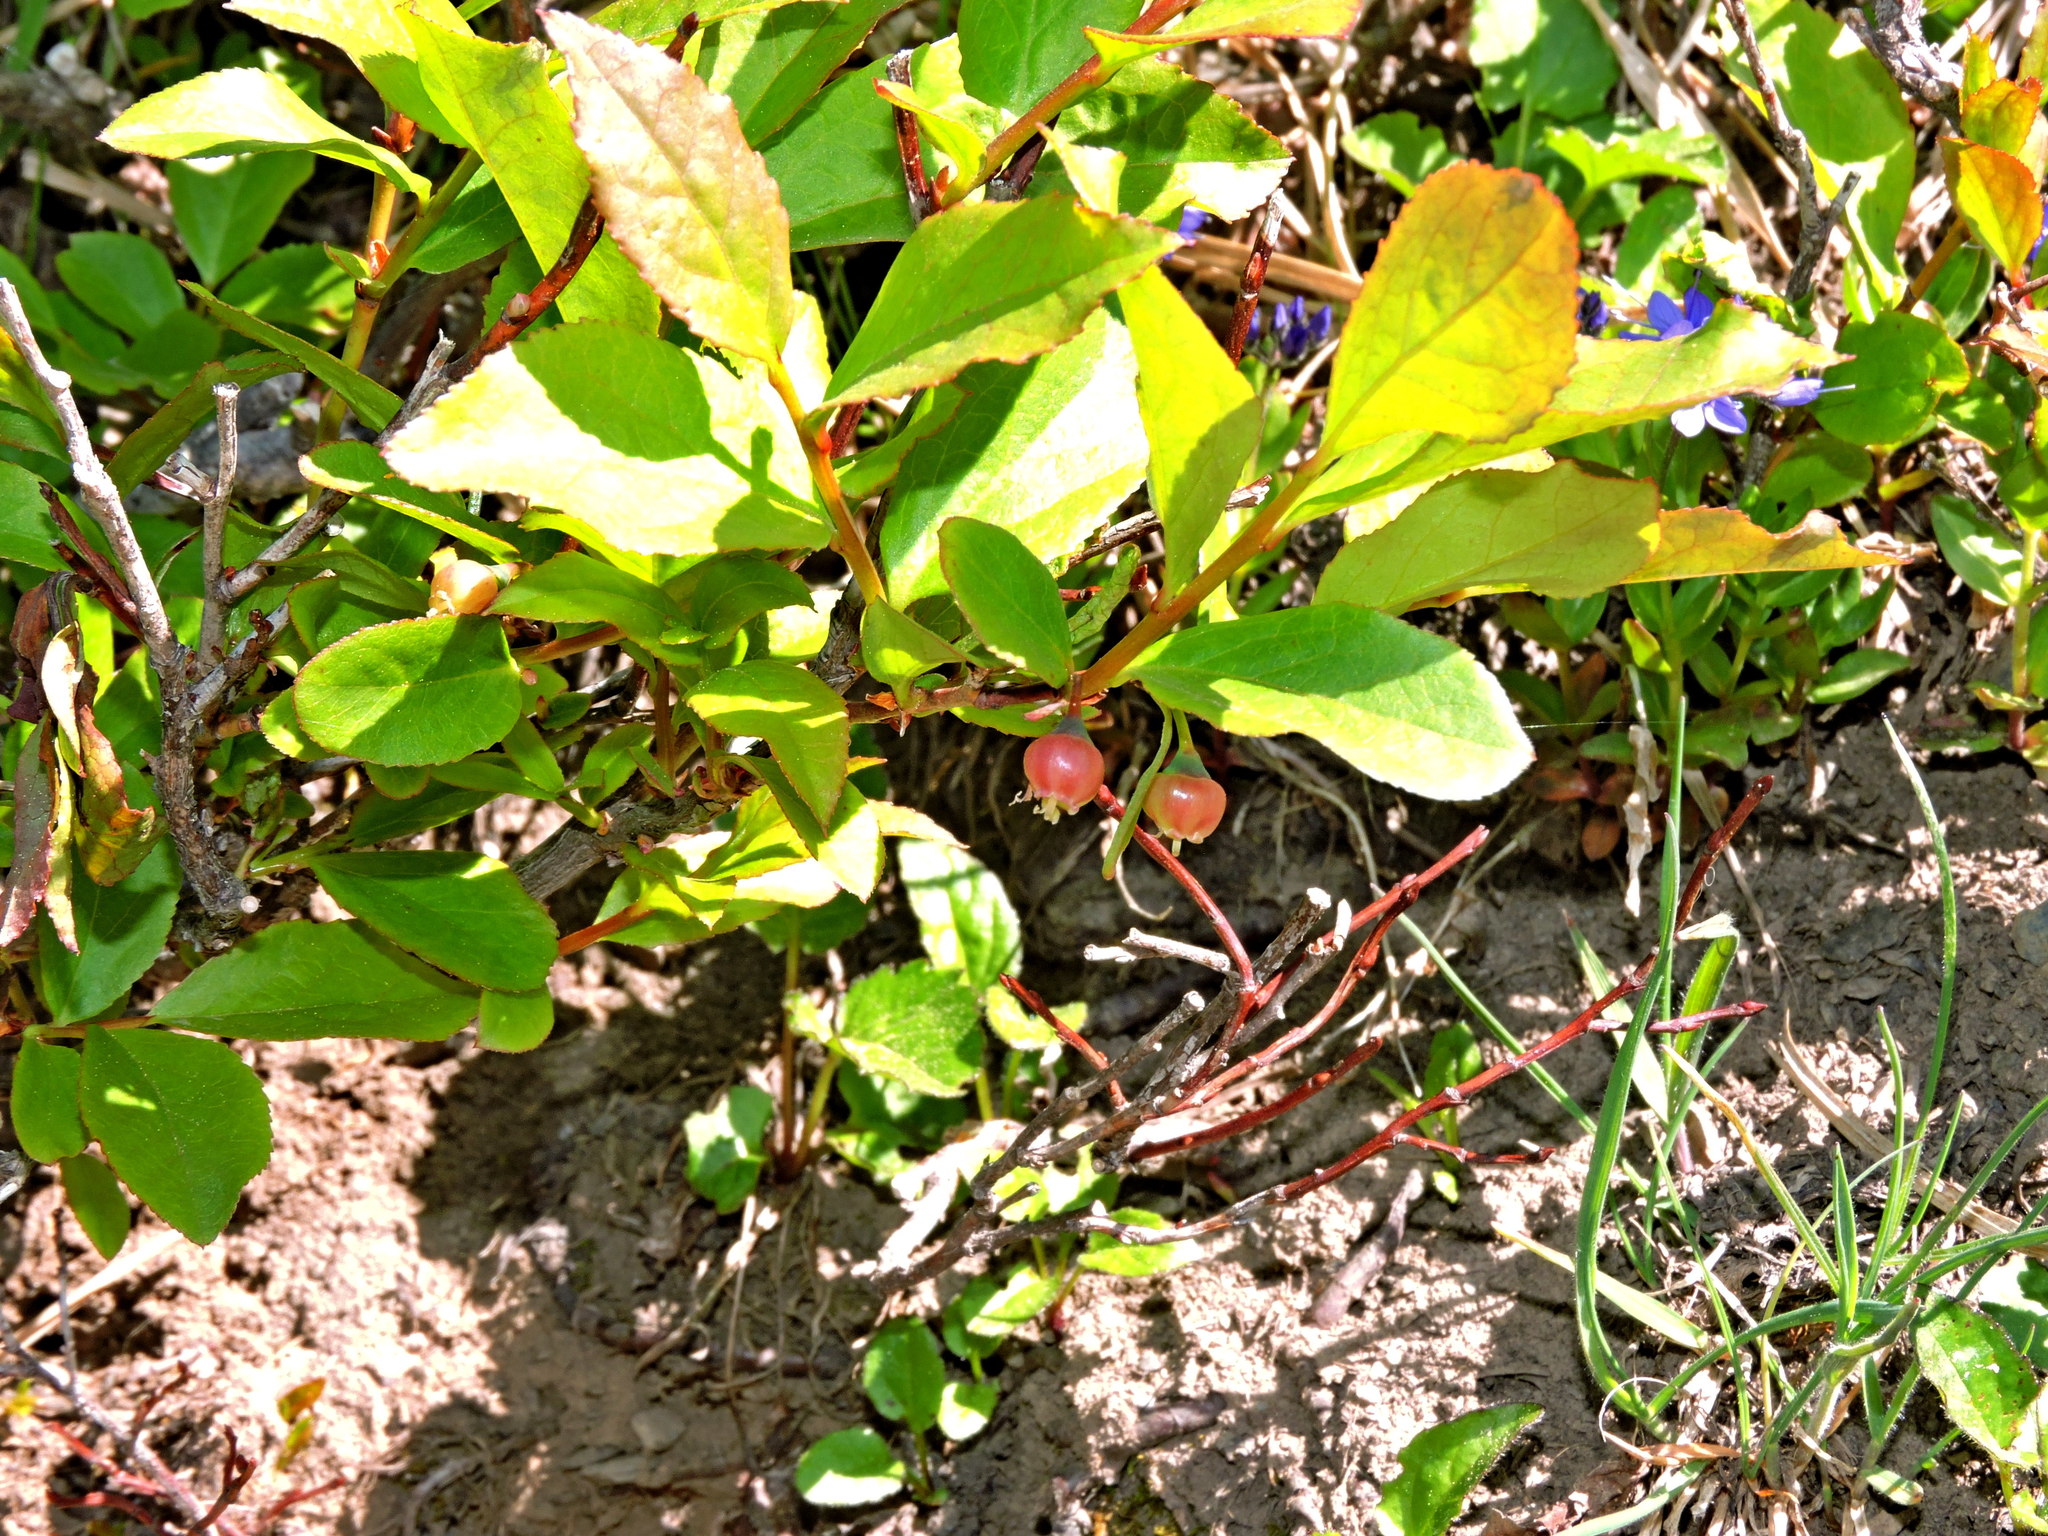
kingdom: Plantae
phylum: Tracheophyta
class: Magnoliopsida
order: Ericales
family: Ericaceae
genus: Vaccinium
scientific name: Vaccinium membranaceum
